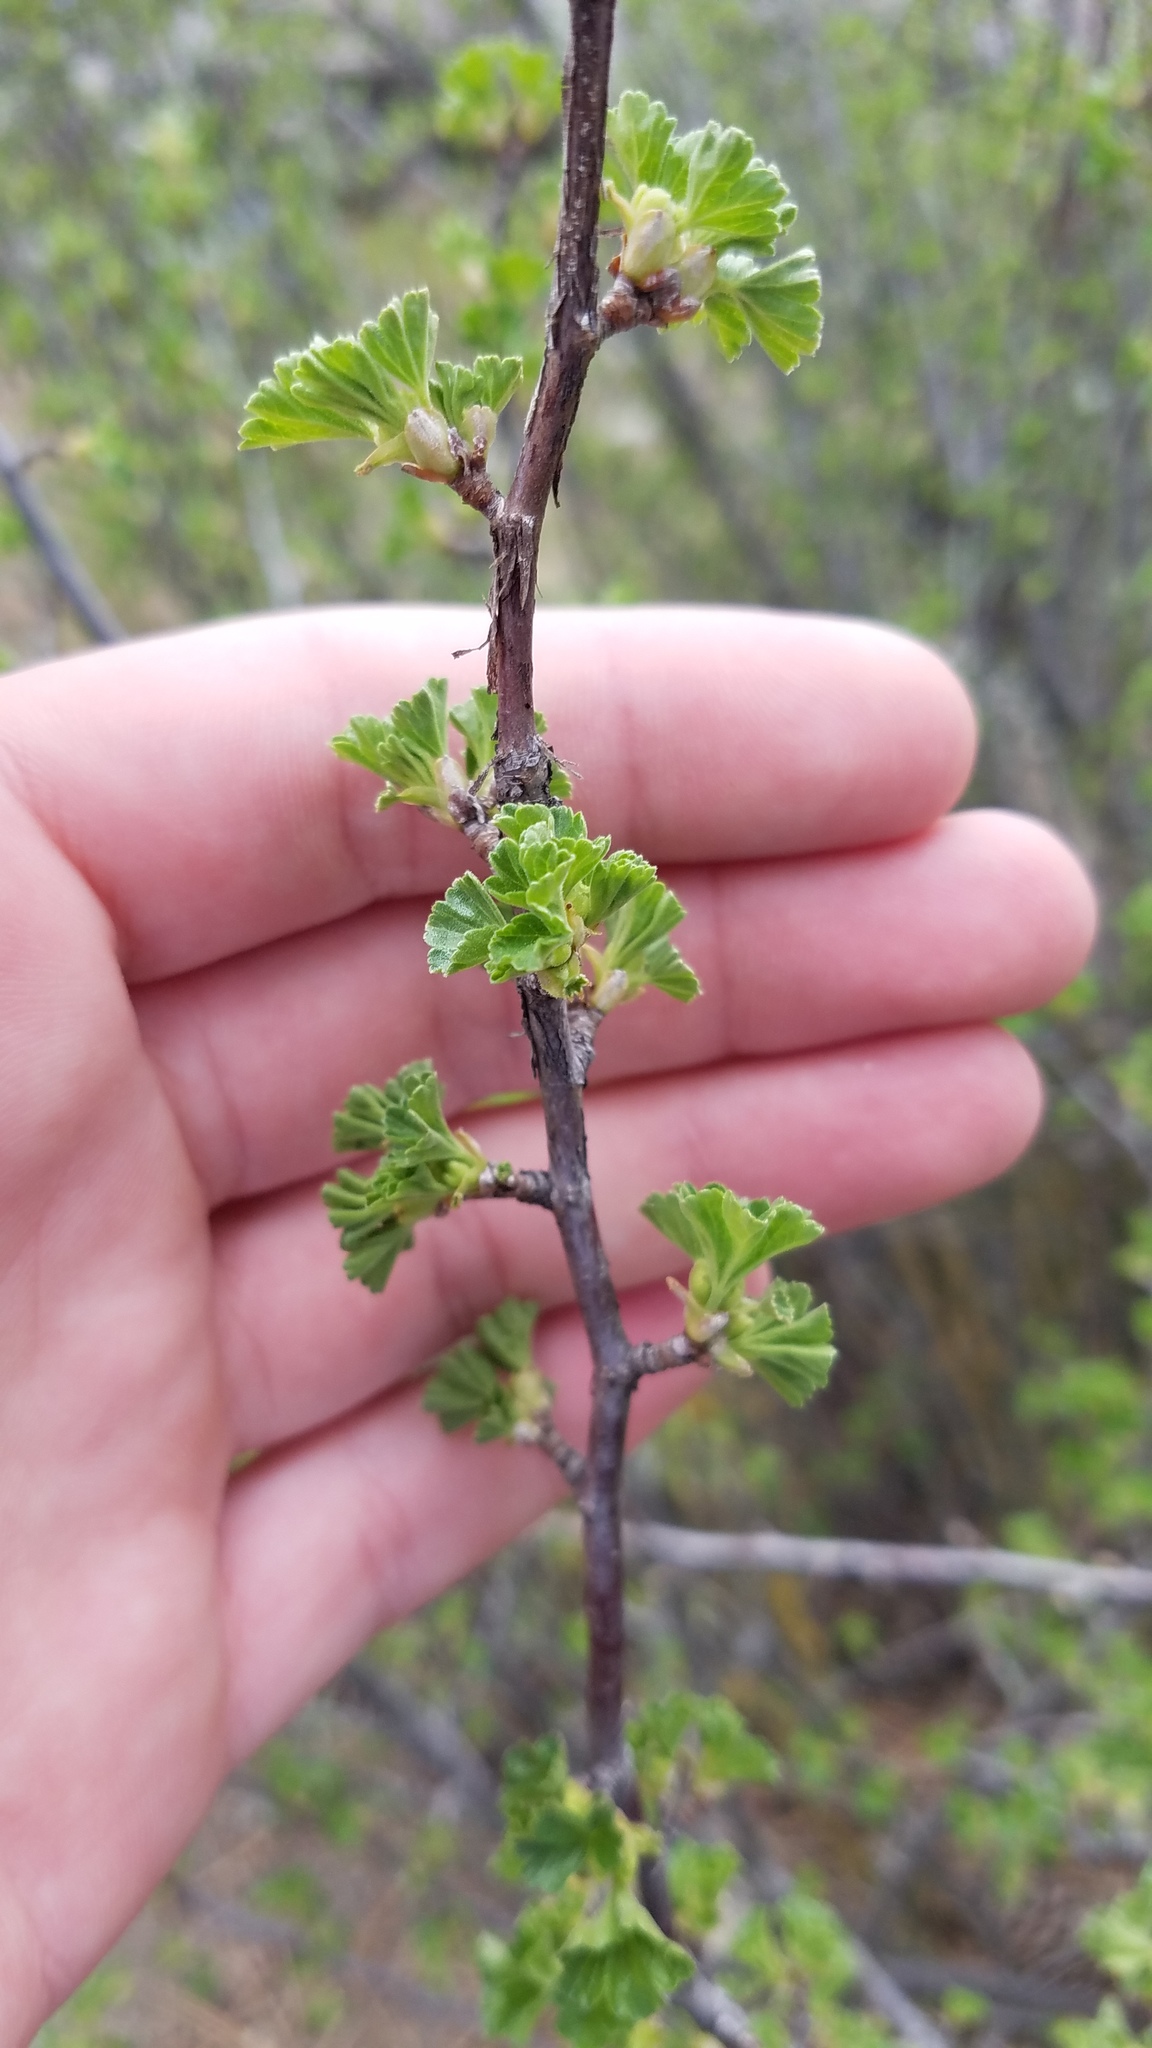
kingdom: Plantae
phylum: Tracheophyta
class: Magnoliopsida
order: Saxifragales
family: Grossulariaceae
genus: Ribes
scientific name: Ribes cereum
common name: Wax currant
